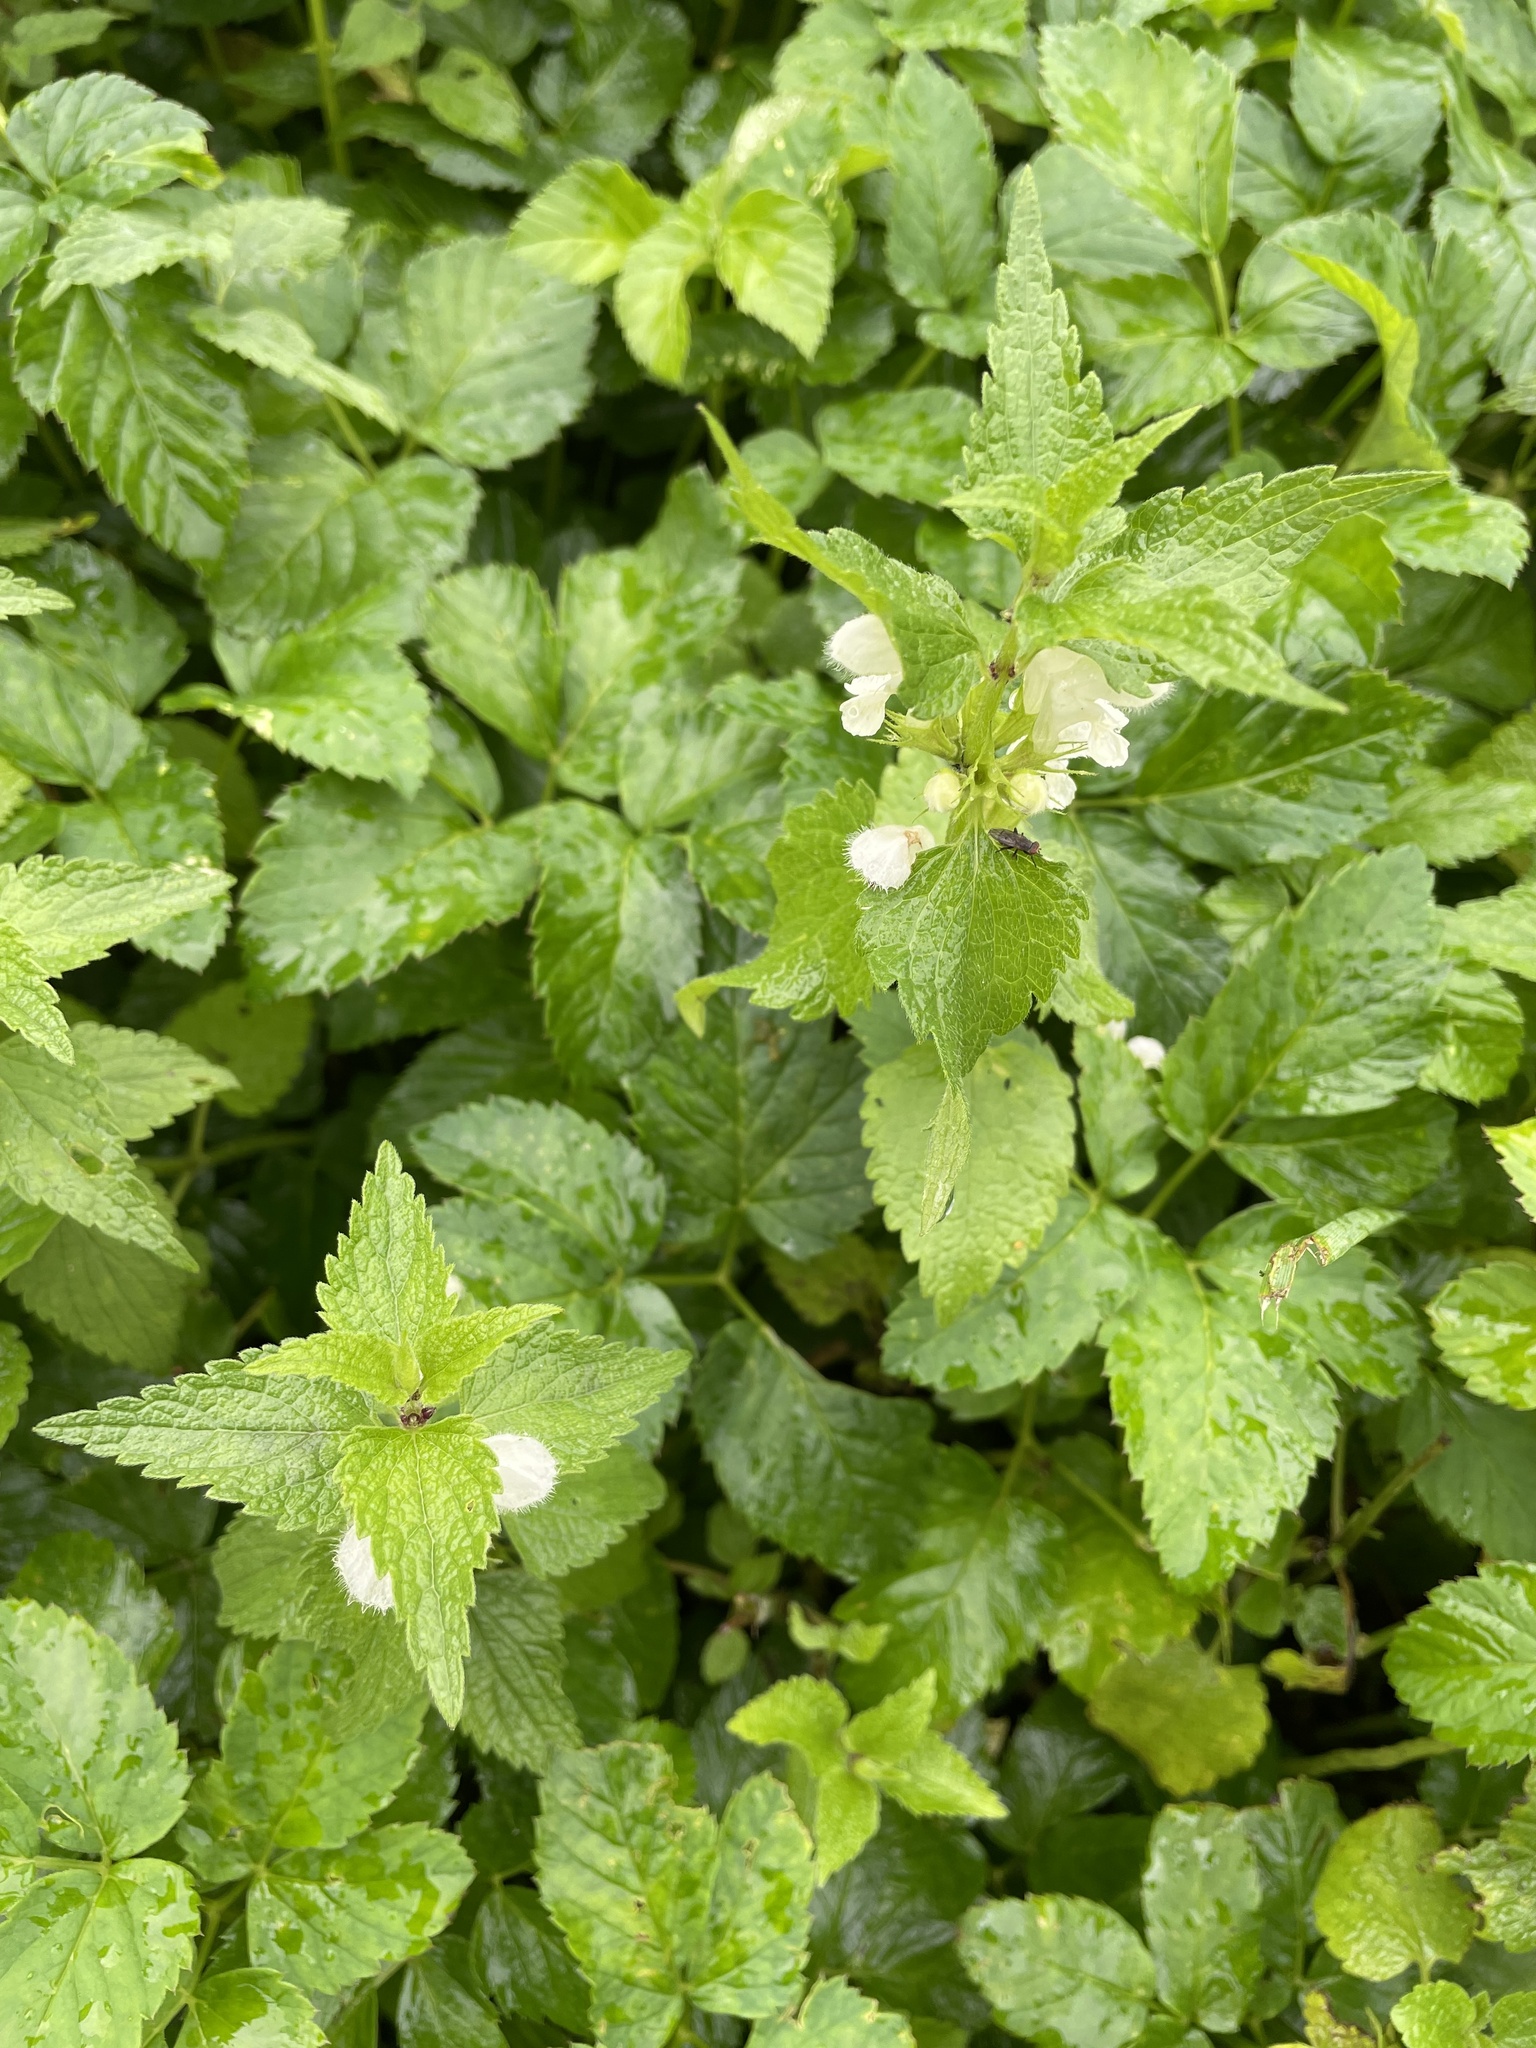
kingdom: Plantae
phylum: Tracheophyta
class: Magnoliopsida
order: Lamiales
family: Lamiaceae
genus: Lamium
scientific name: Lamium album
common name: White dead-nettle
